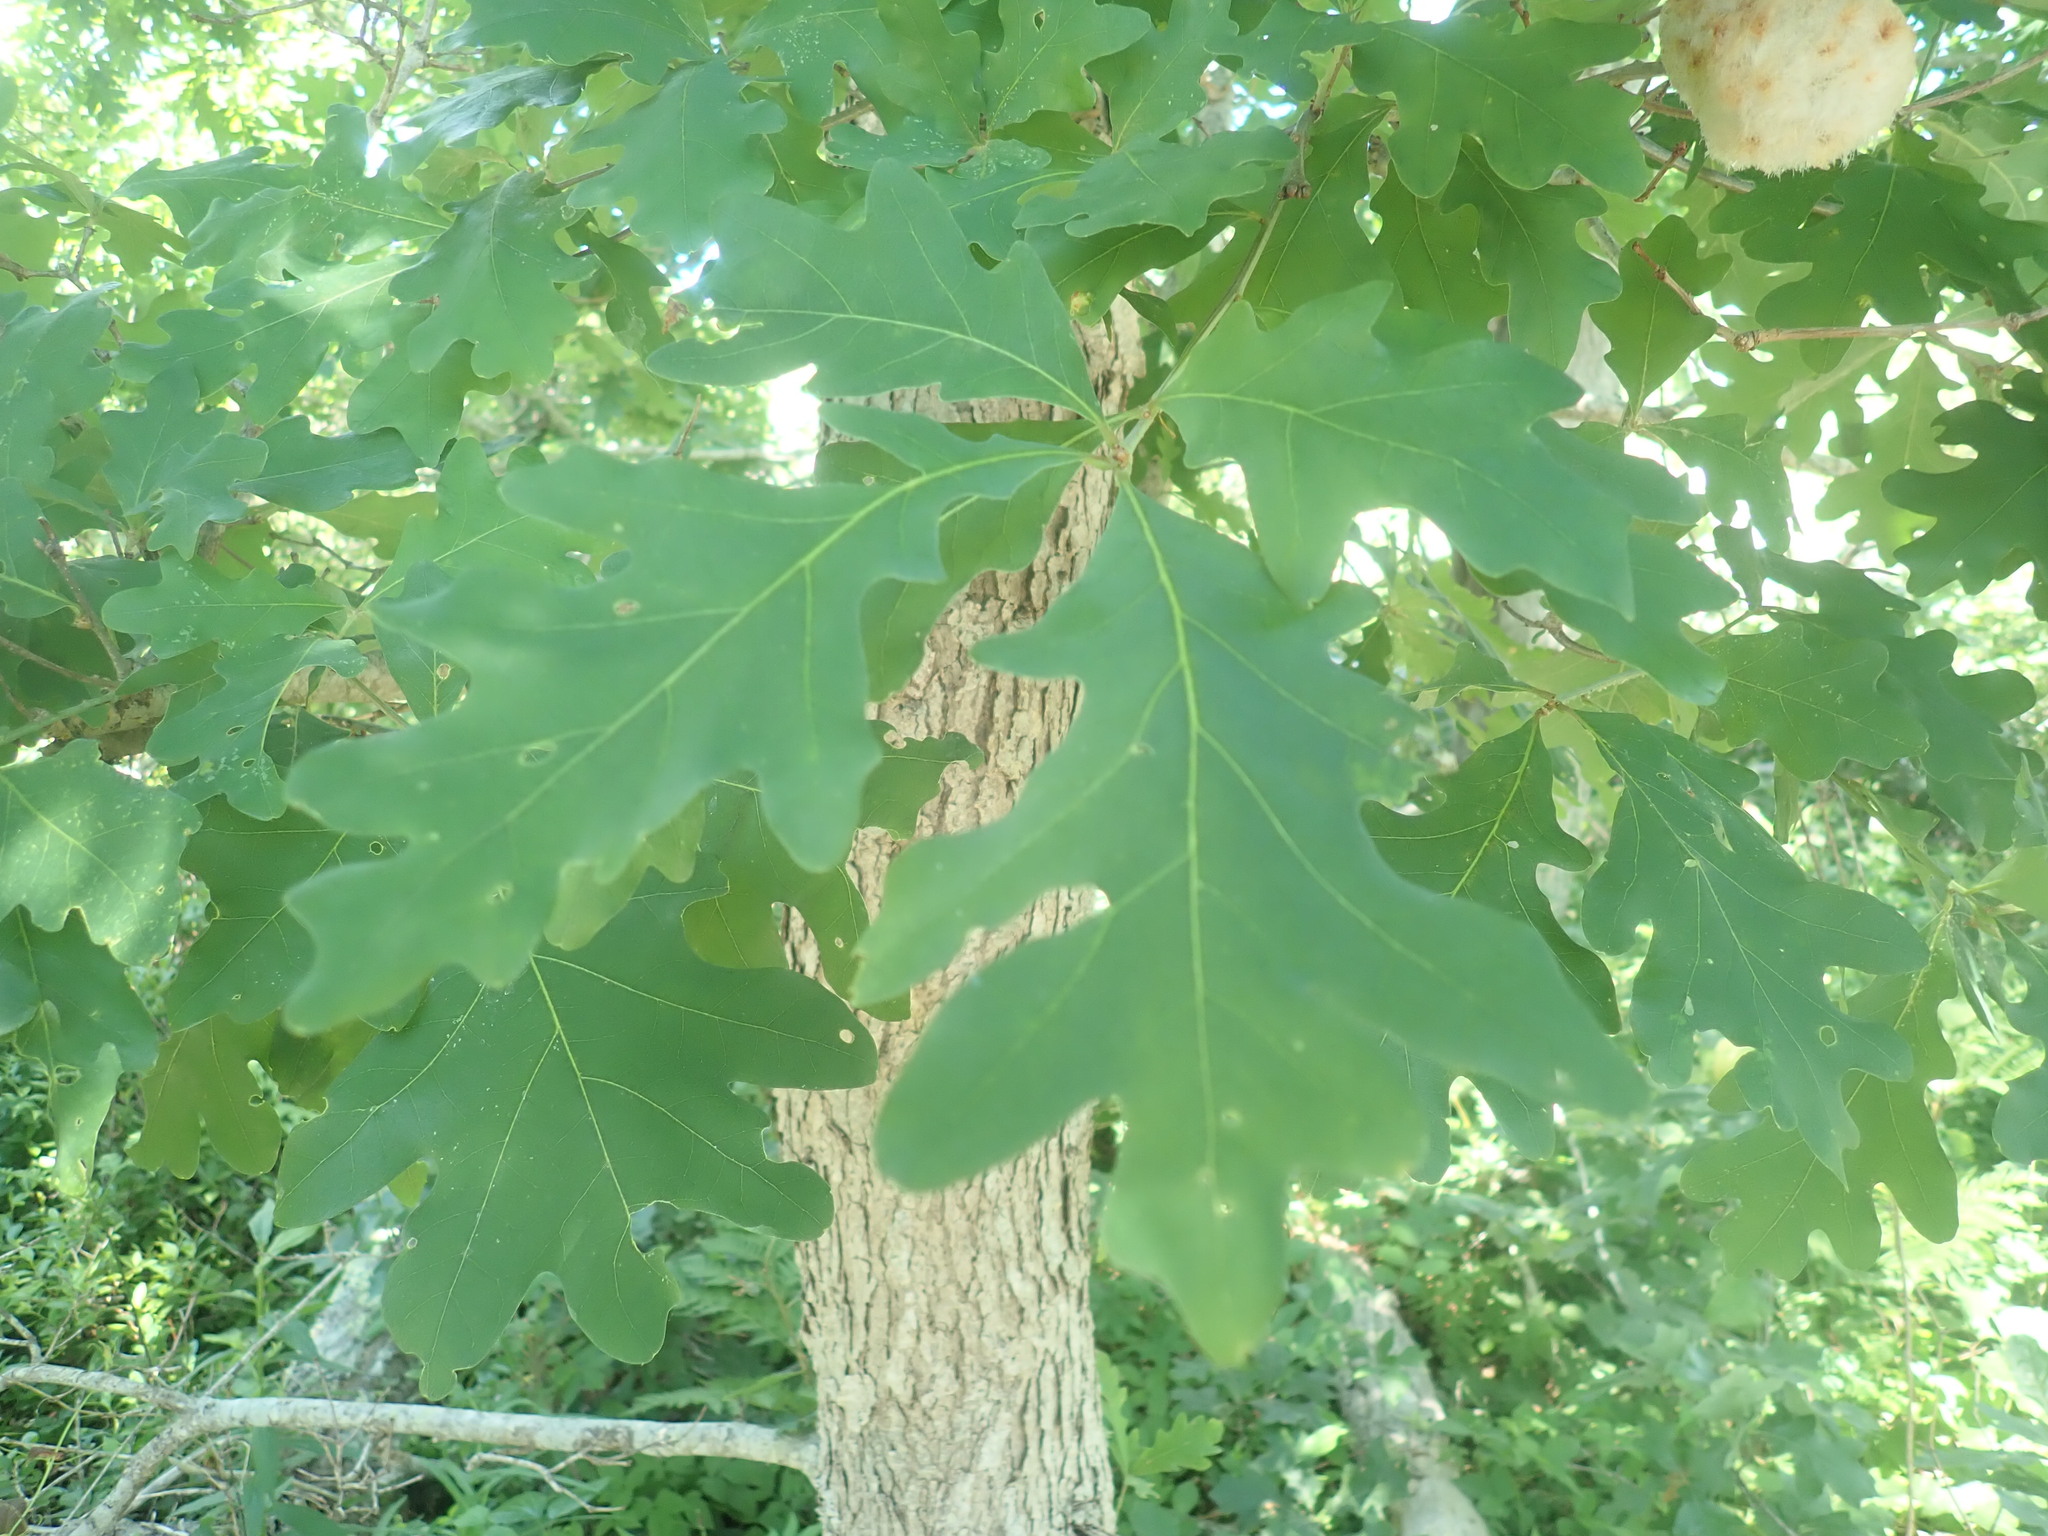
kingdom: Plantae
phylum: Tracheophyta
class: Magnoliopsida
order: Fagales
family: Fagaceae
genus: Quercus
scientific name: Quercus alba
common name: White oak
